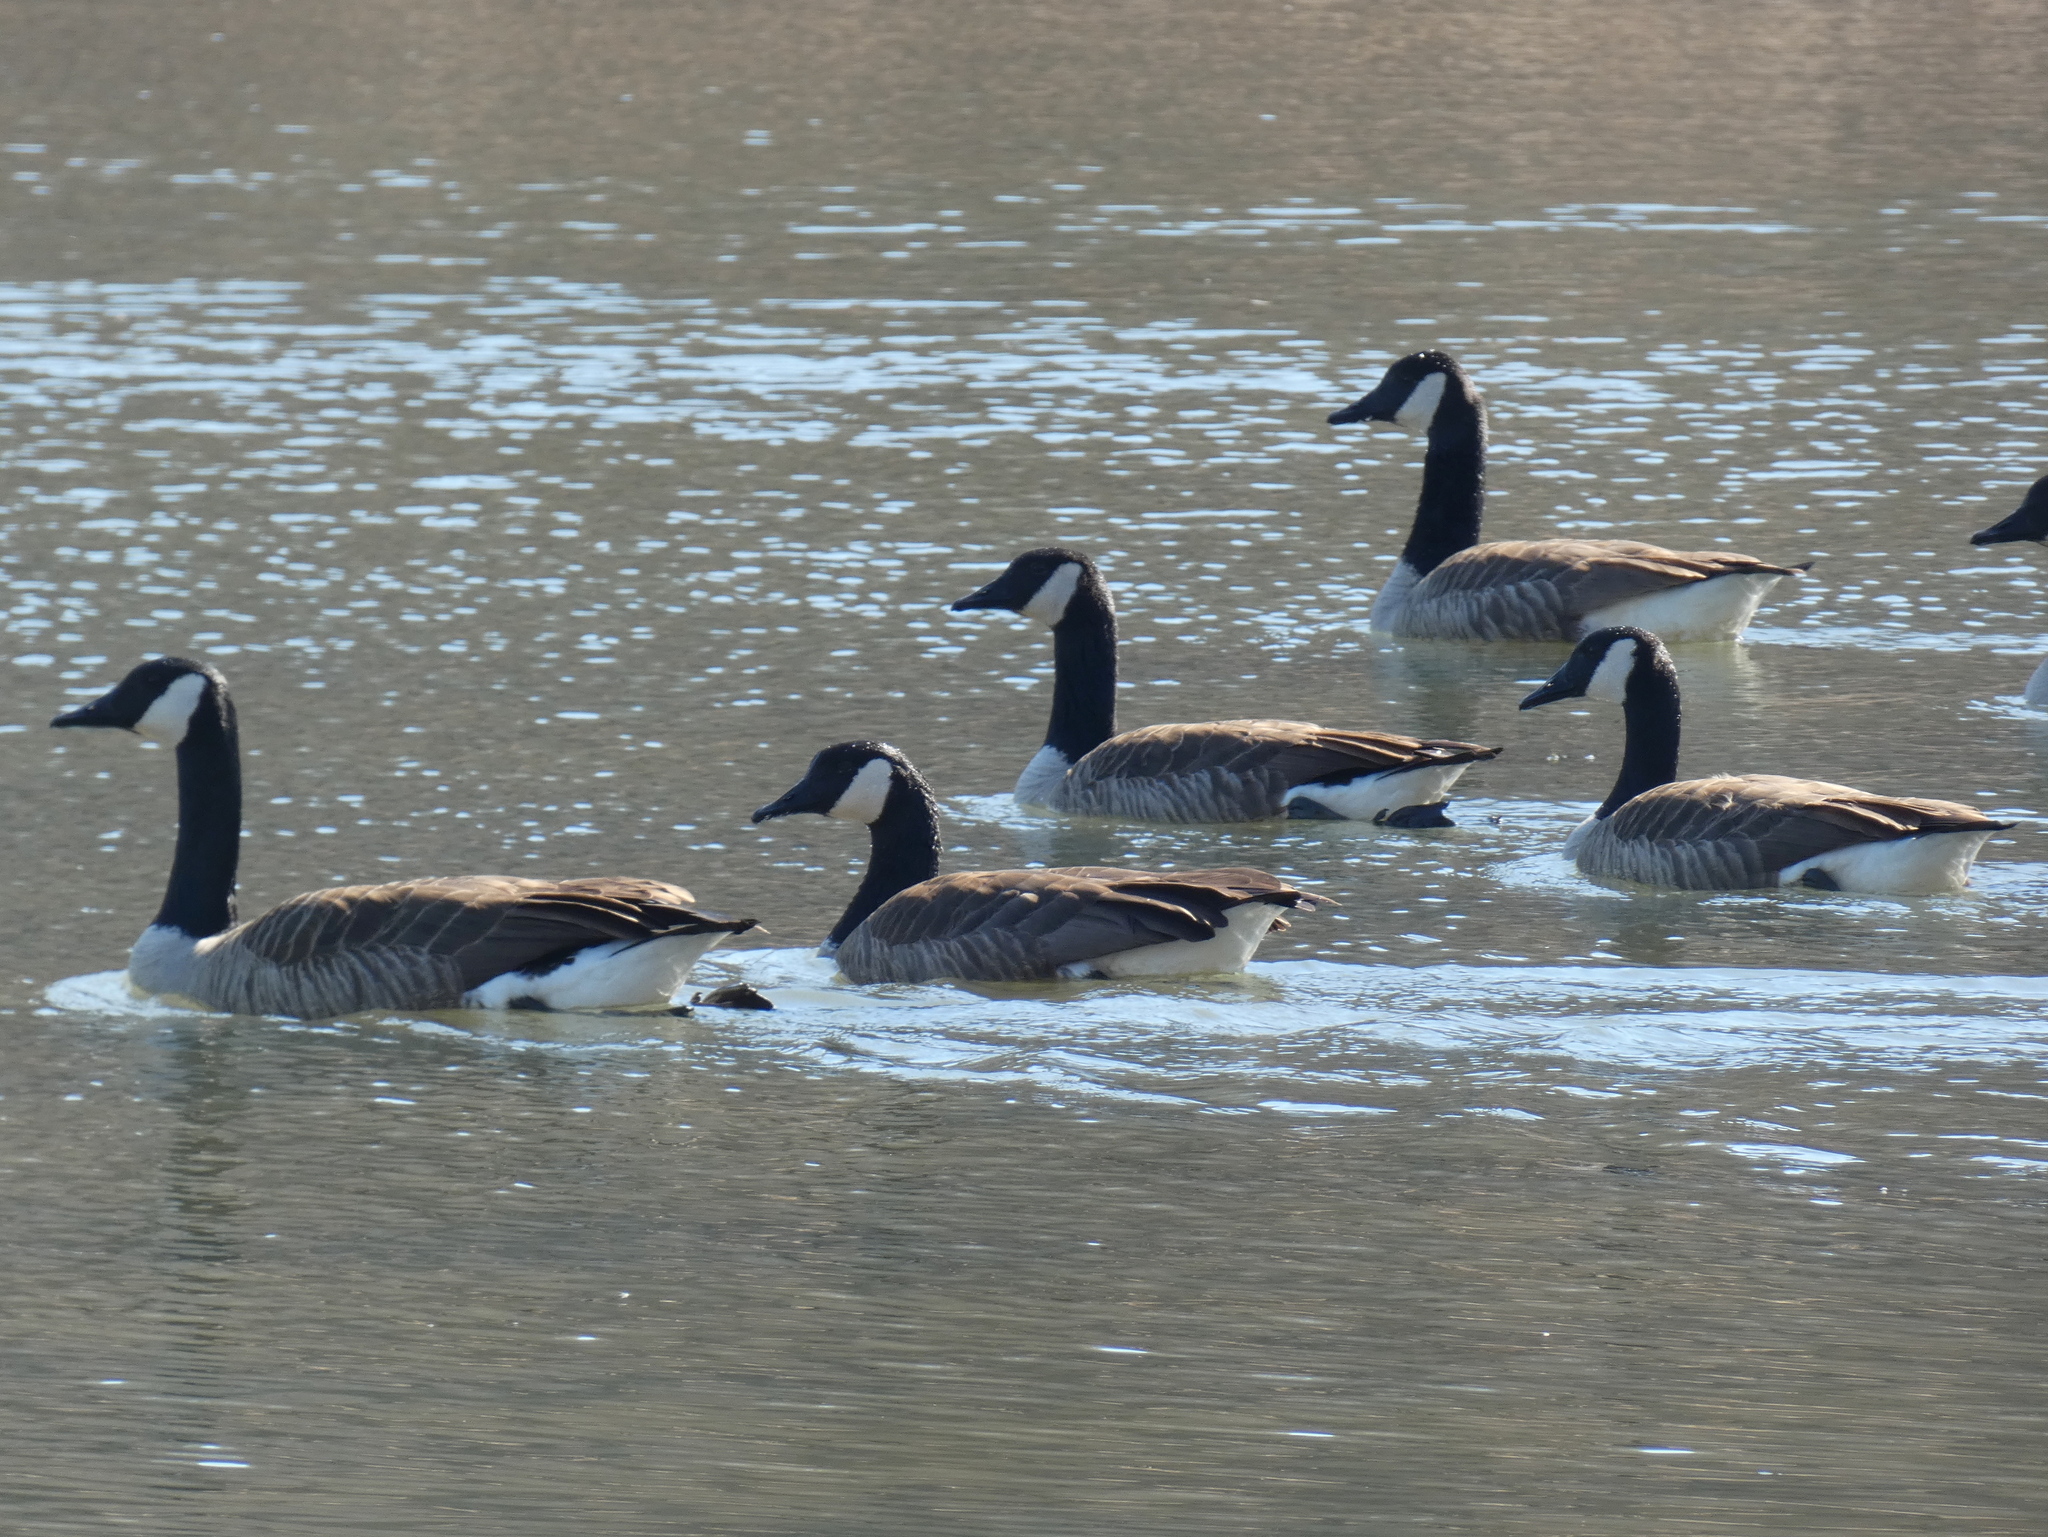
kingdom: Animalia
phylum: Chordata
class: Aves
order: Anseriformes
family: Anatidae
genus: Branta
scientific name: Branta canadensis
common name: Canada goose
